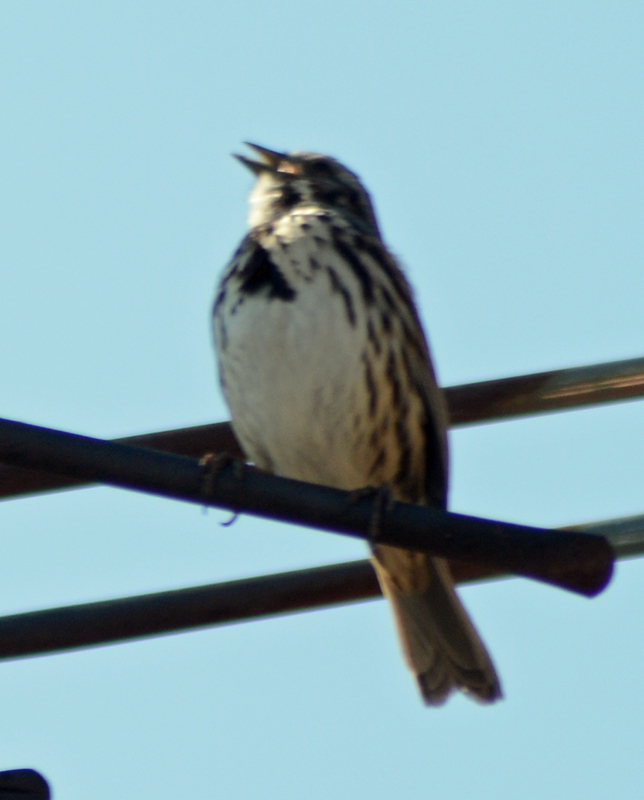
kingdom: Animalia
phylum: Chordata
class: Aves
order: Passeriformes
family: Passerellidae
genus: Melospiza
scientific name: Melospiza melodia
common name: Song sparrow
